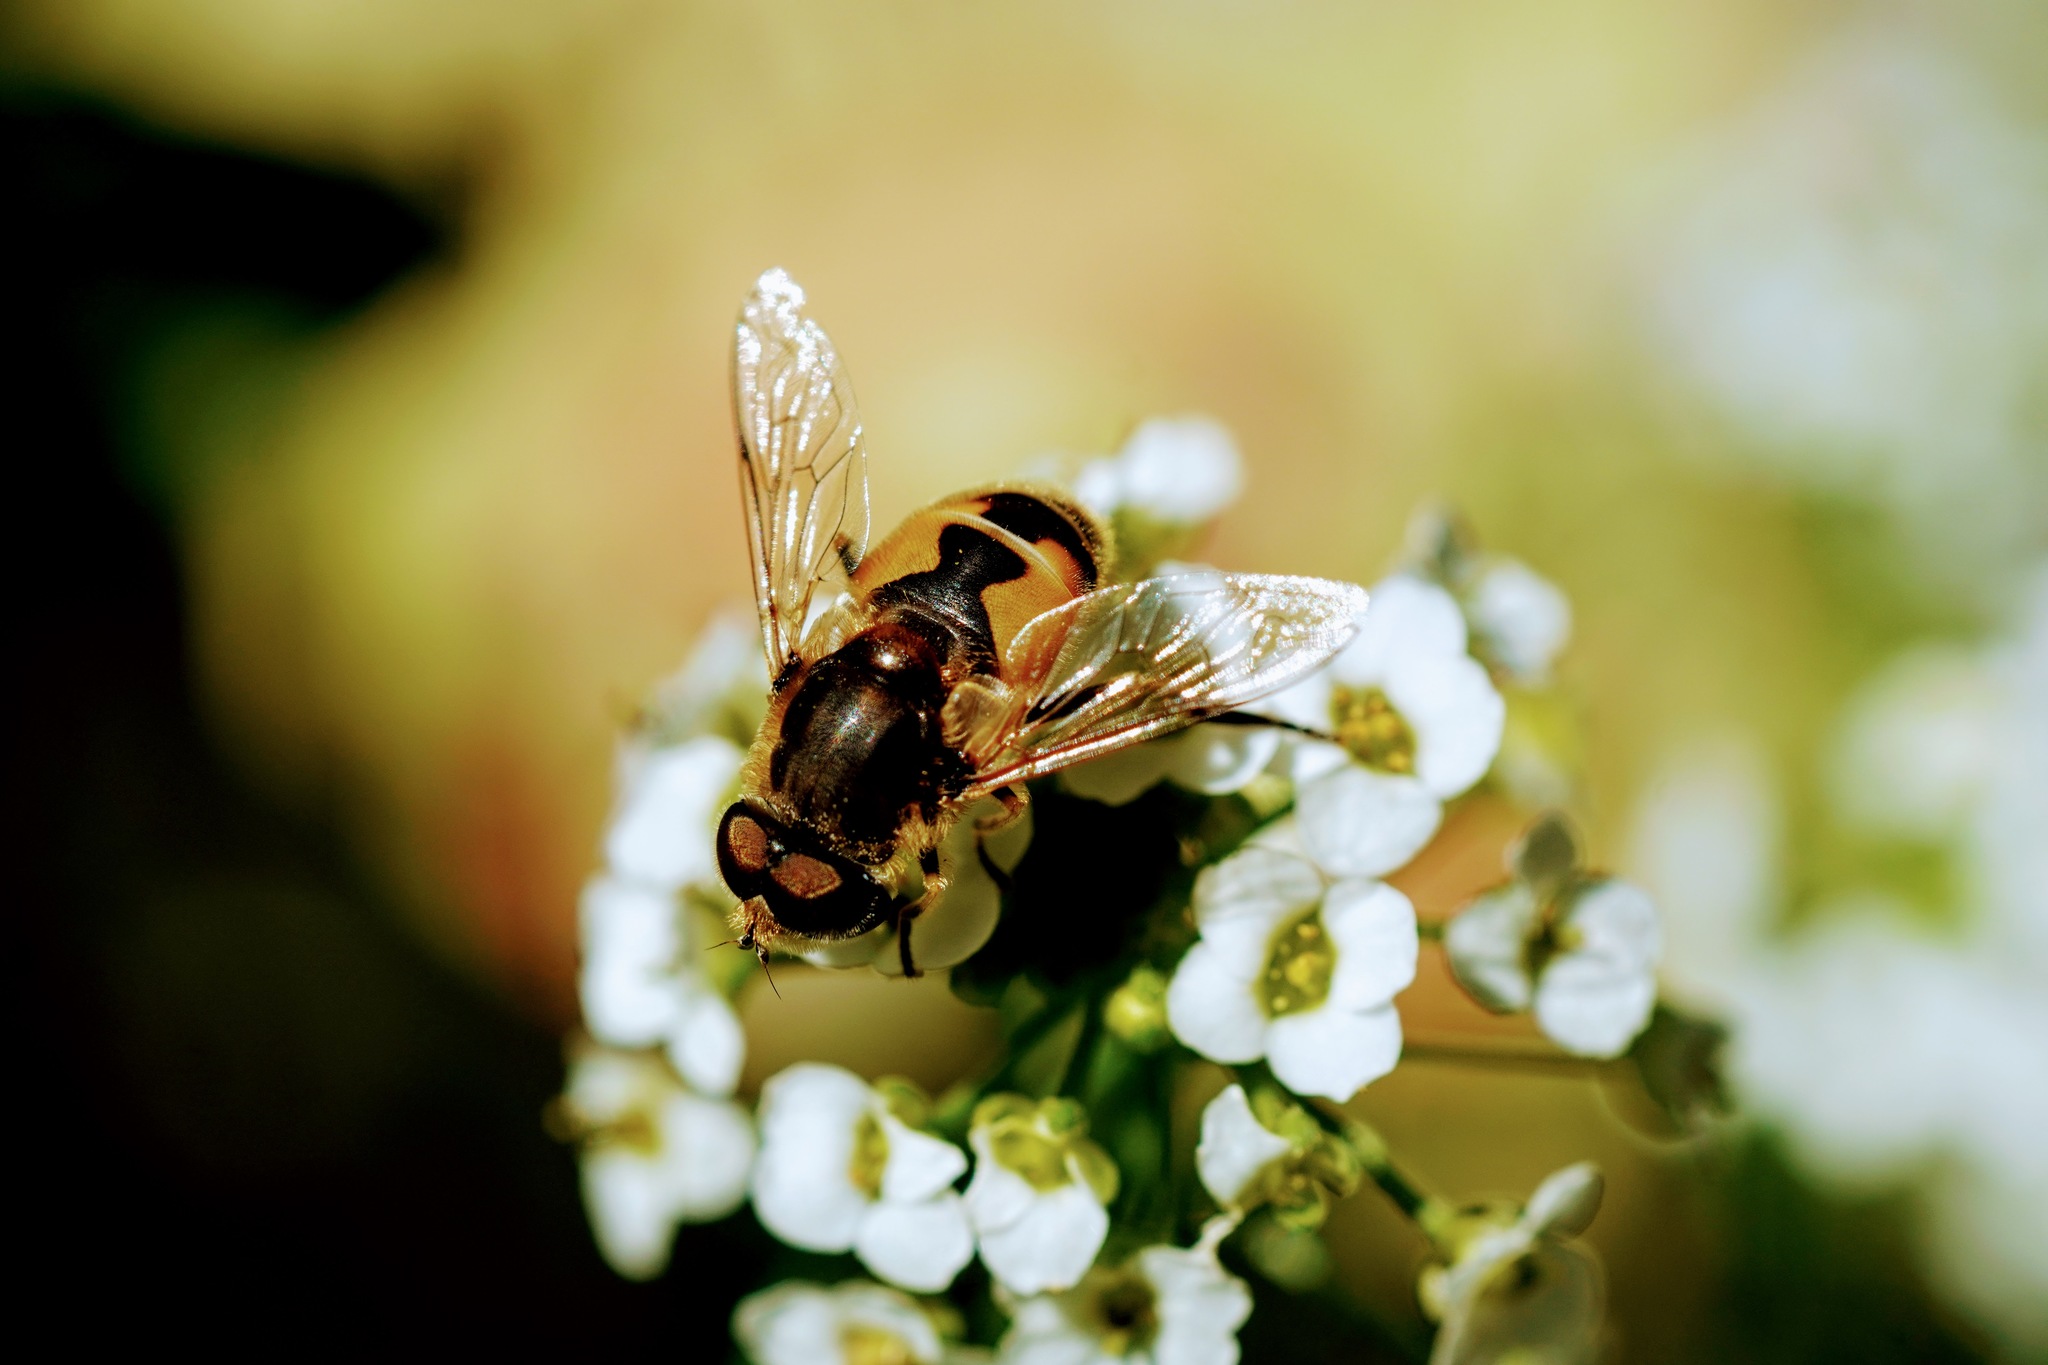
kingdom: Animalia
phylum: Arthropoda
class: Insecta
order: Diptera
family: Syrphidae
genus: Eristalis
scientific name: Eristalis arbustorum
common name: Hover fly
